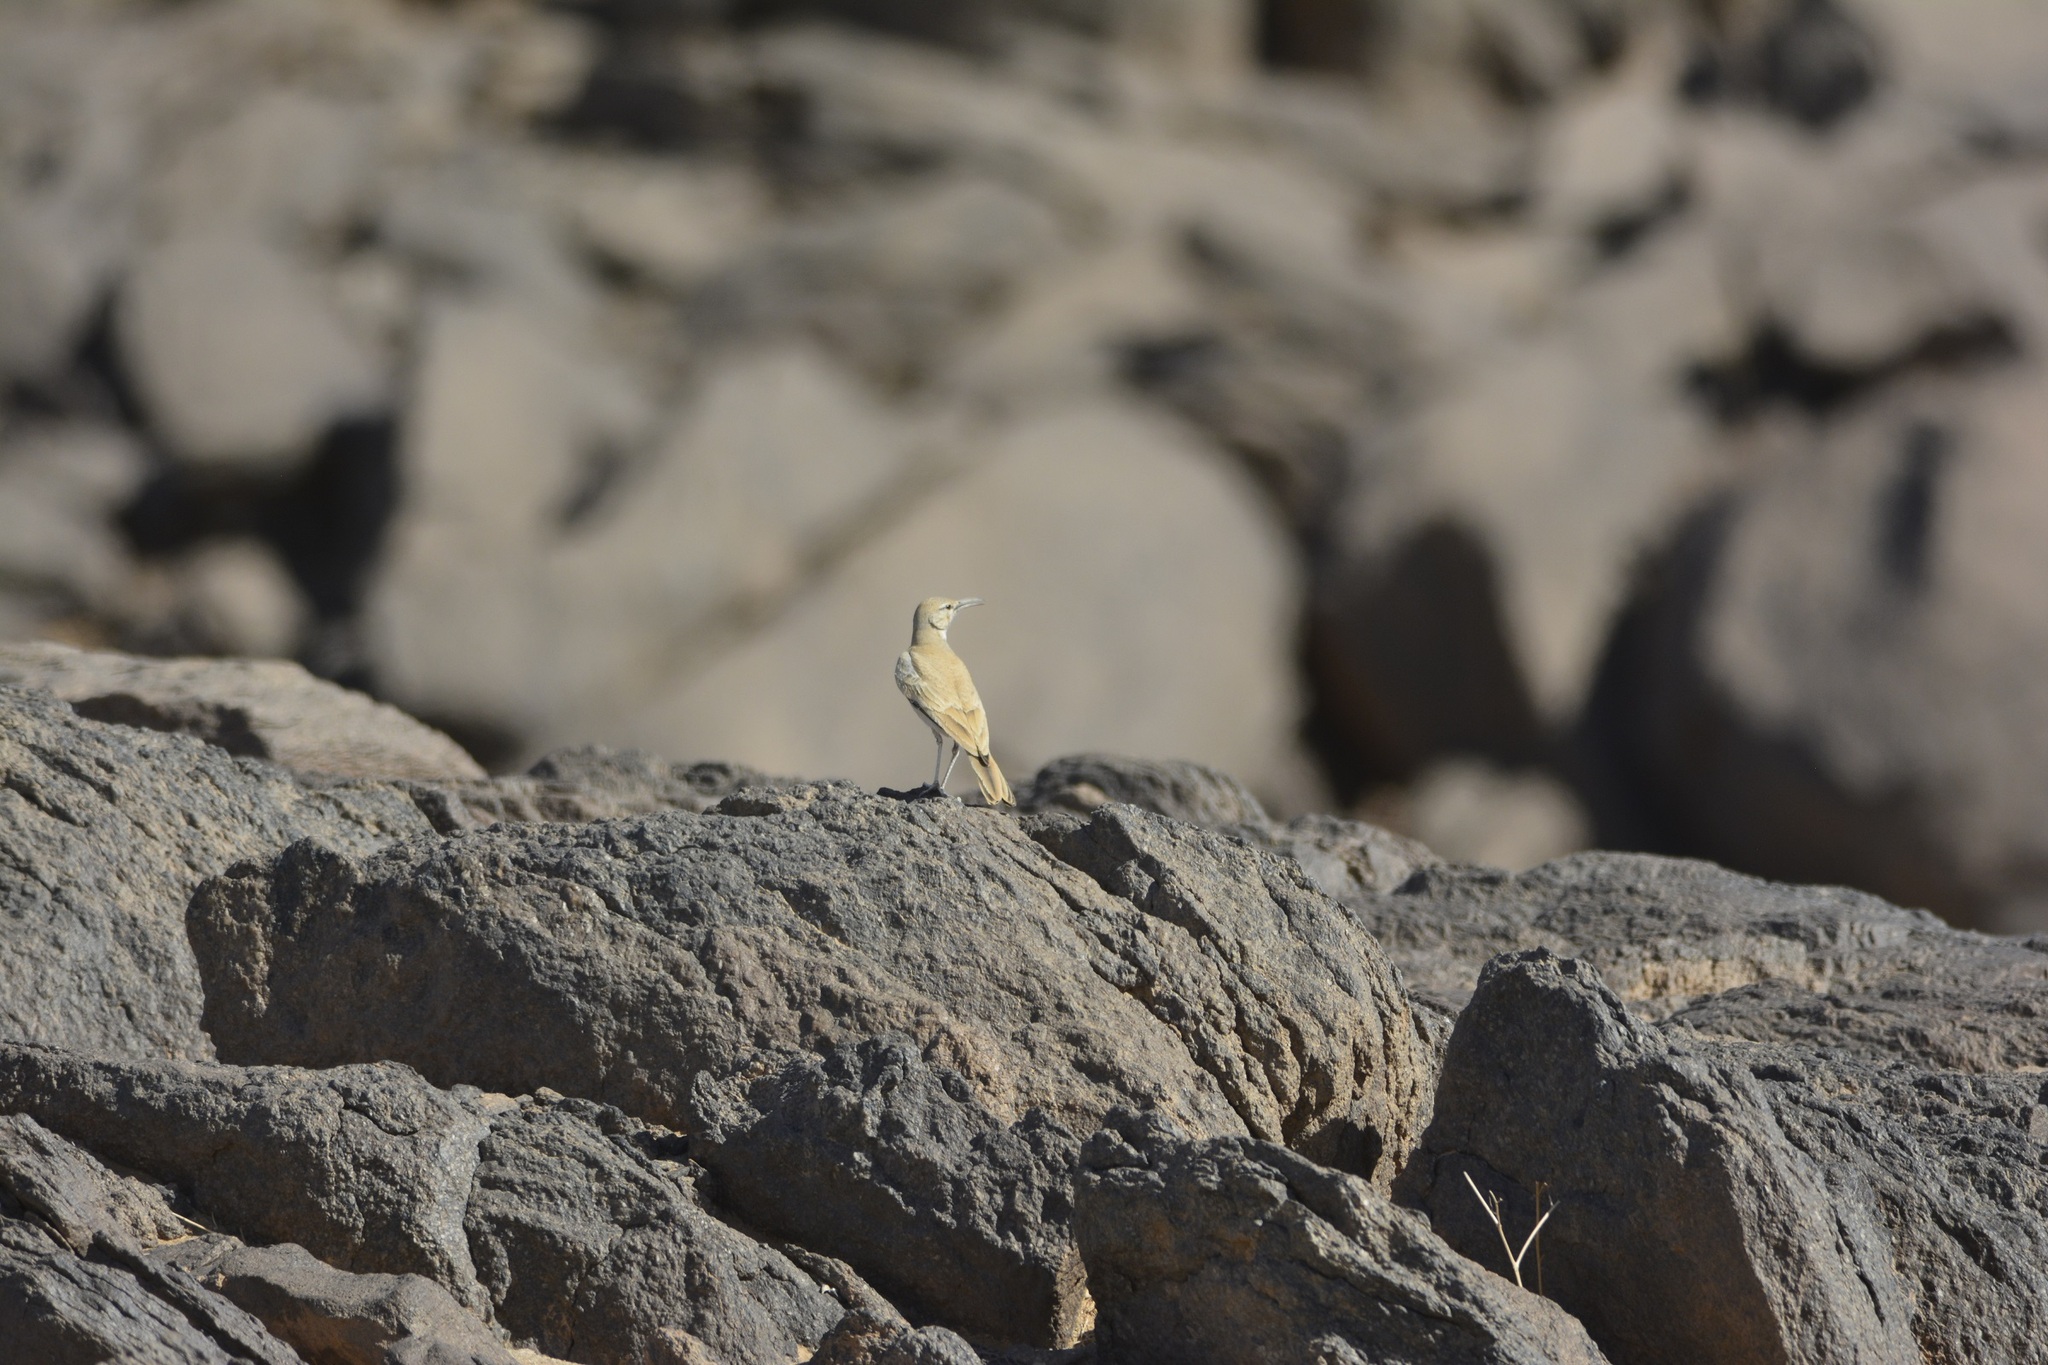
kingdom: Animalia
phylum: Chordata
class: Aves
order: Passeriformes
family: Alaudidae
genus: Alaemon
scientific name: Alaemon alaudipes
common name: Greater hoopoe-lark
